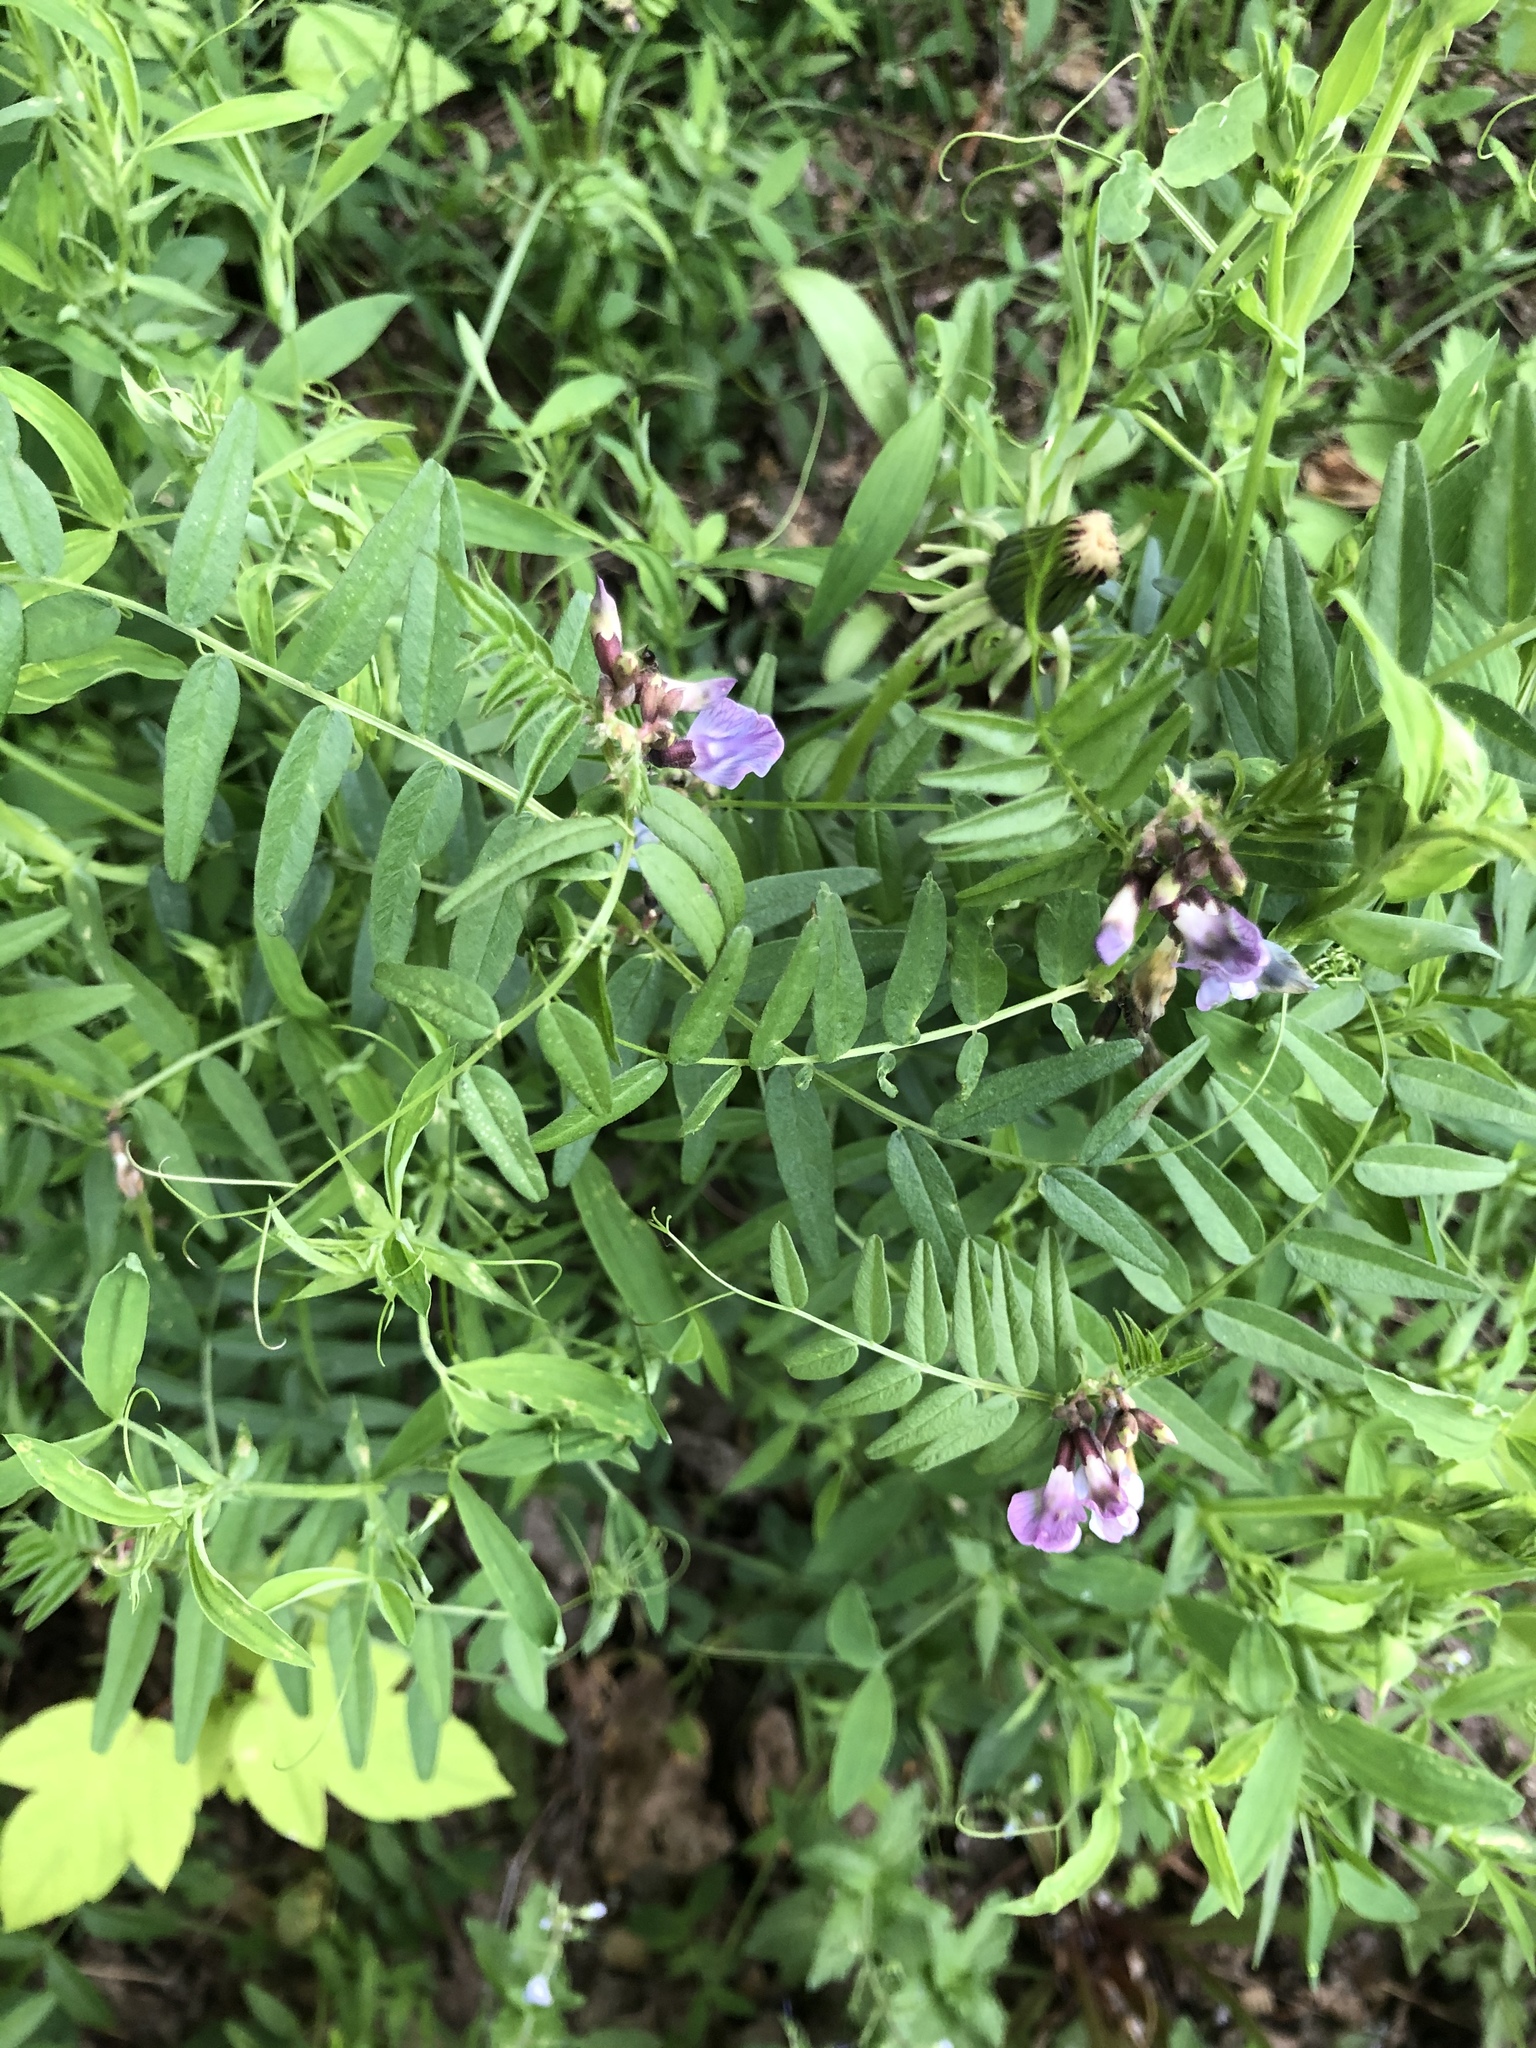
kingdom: Plantae
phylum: Tracheophyta
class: Magnoliopsida
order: Fabales
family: Fabaceae
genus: Vicia
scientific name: Vicia sepium
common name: Bush vetch
